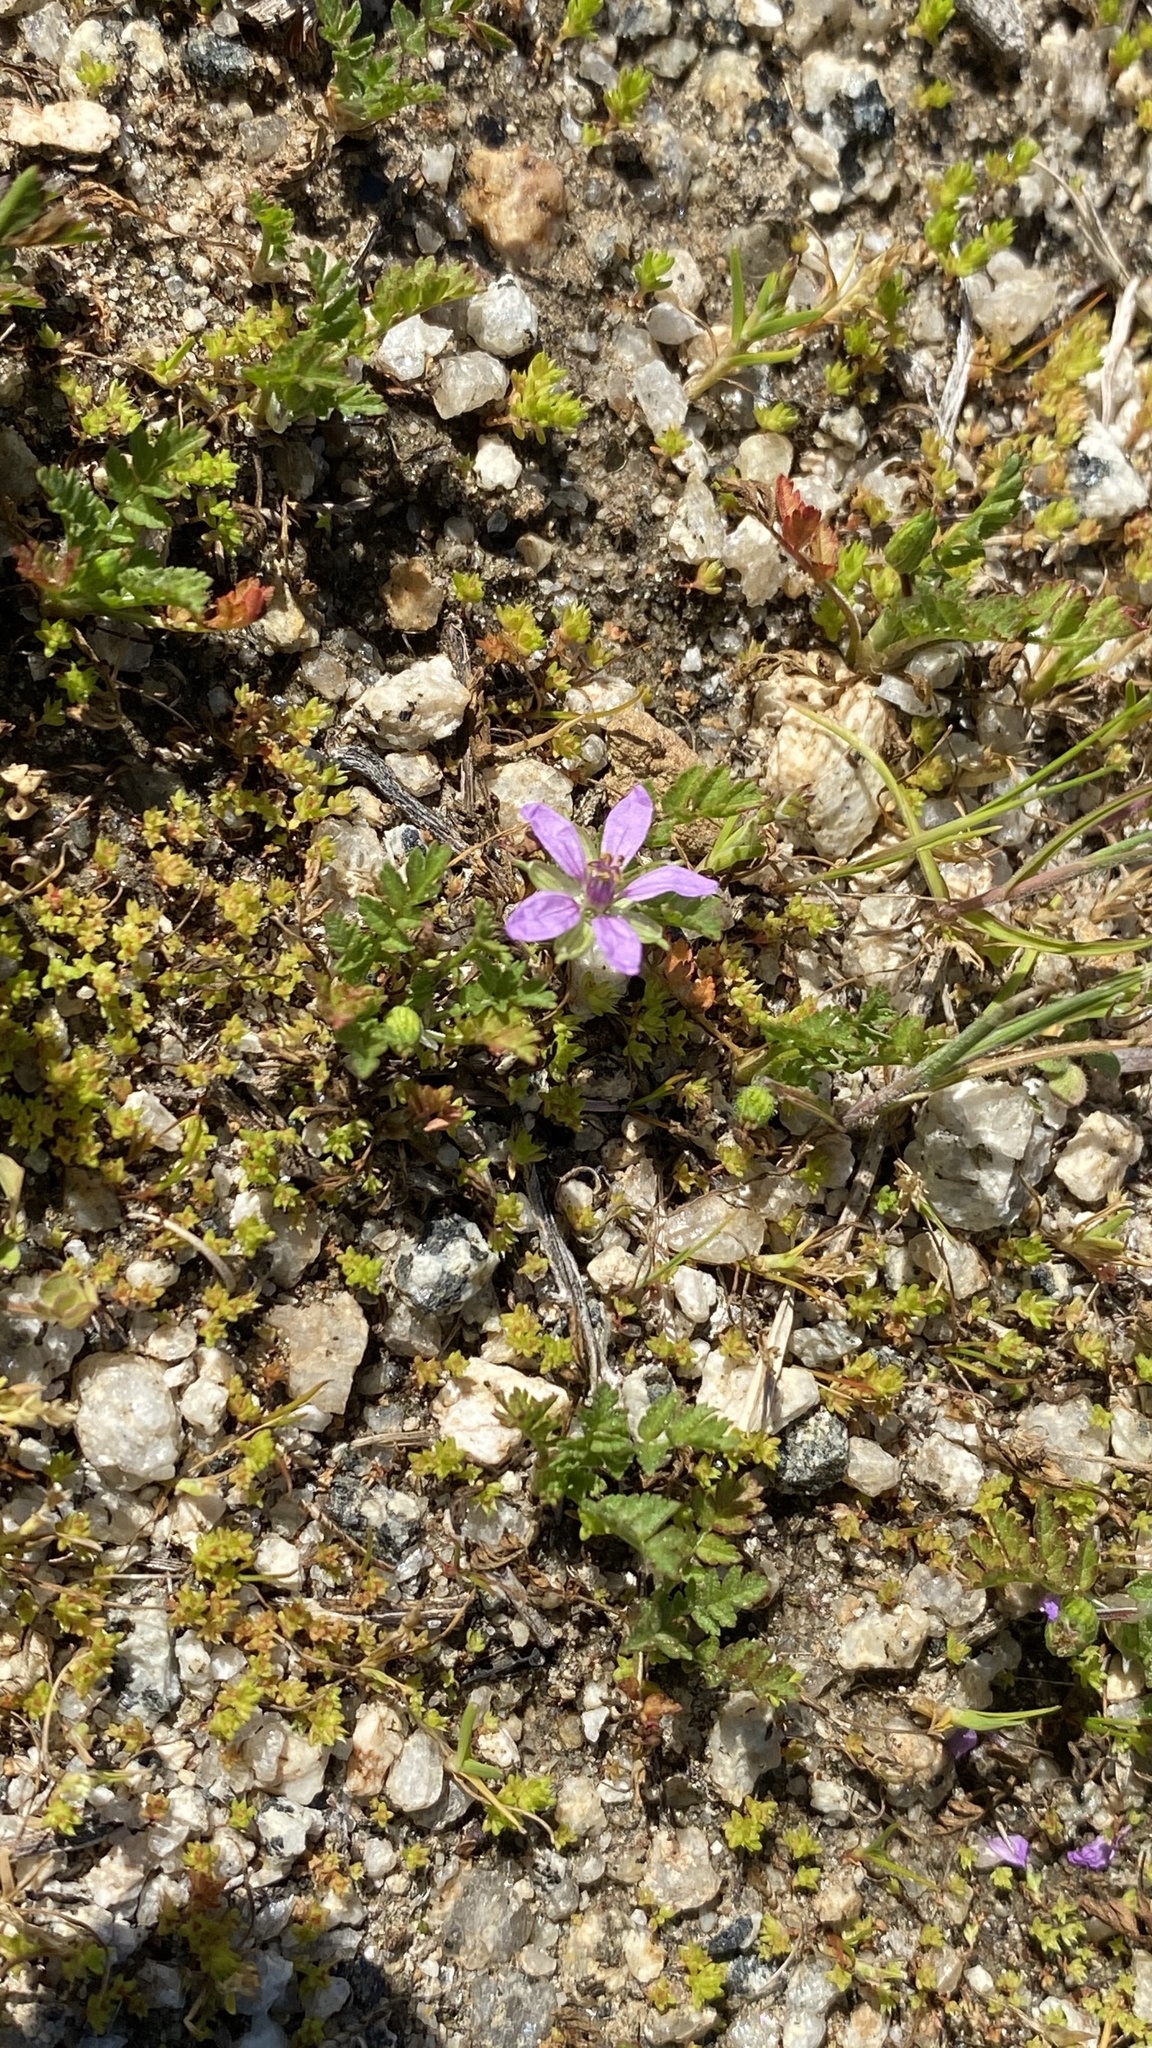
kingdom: Plantae
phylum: Tracheophyta
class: Magnoliopsida
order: Geraniales
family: Geraniaceae
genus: Erodium
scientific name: Erodium moschatum
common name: Musk stork's-bill
